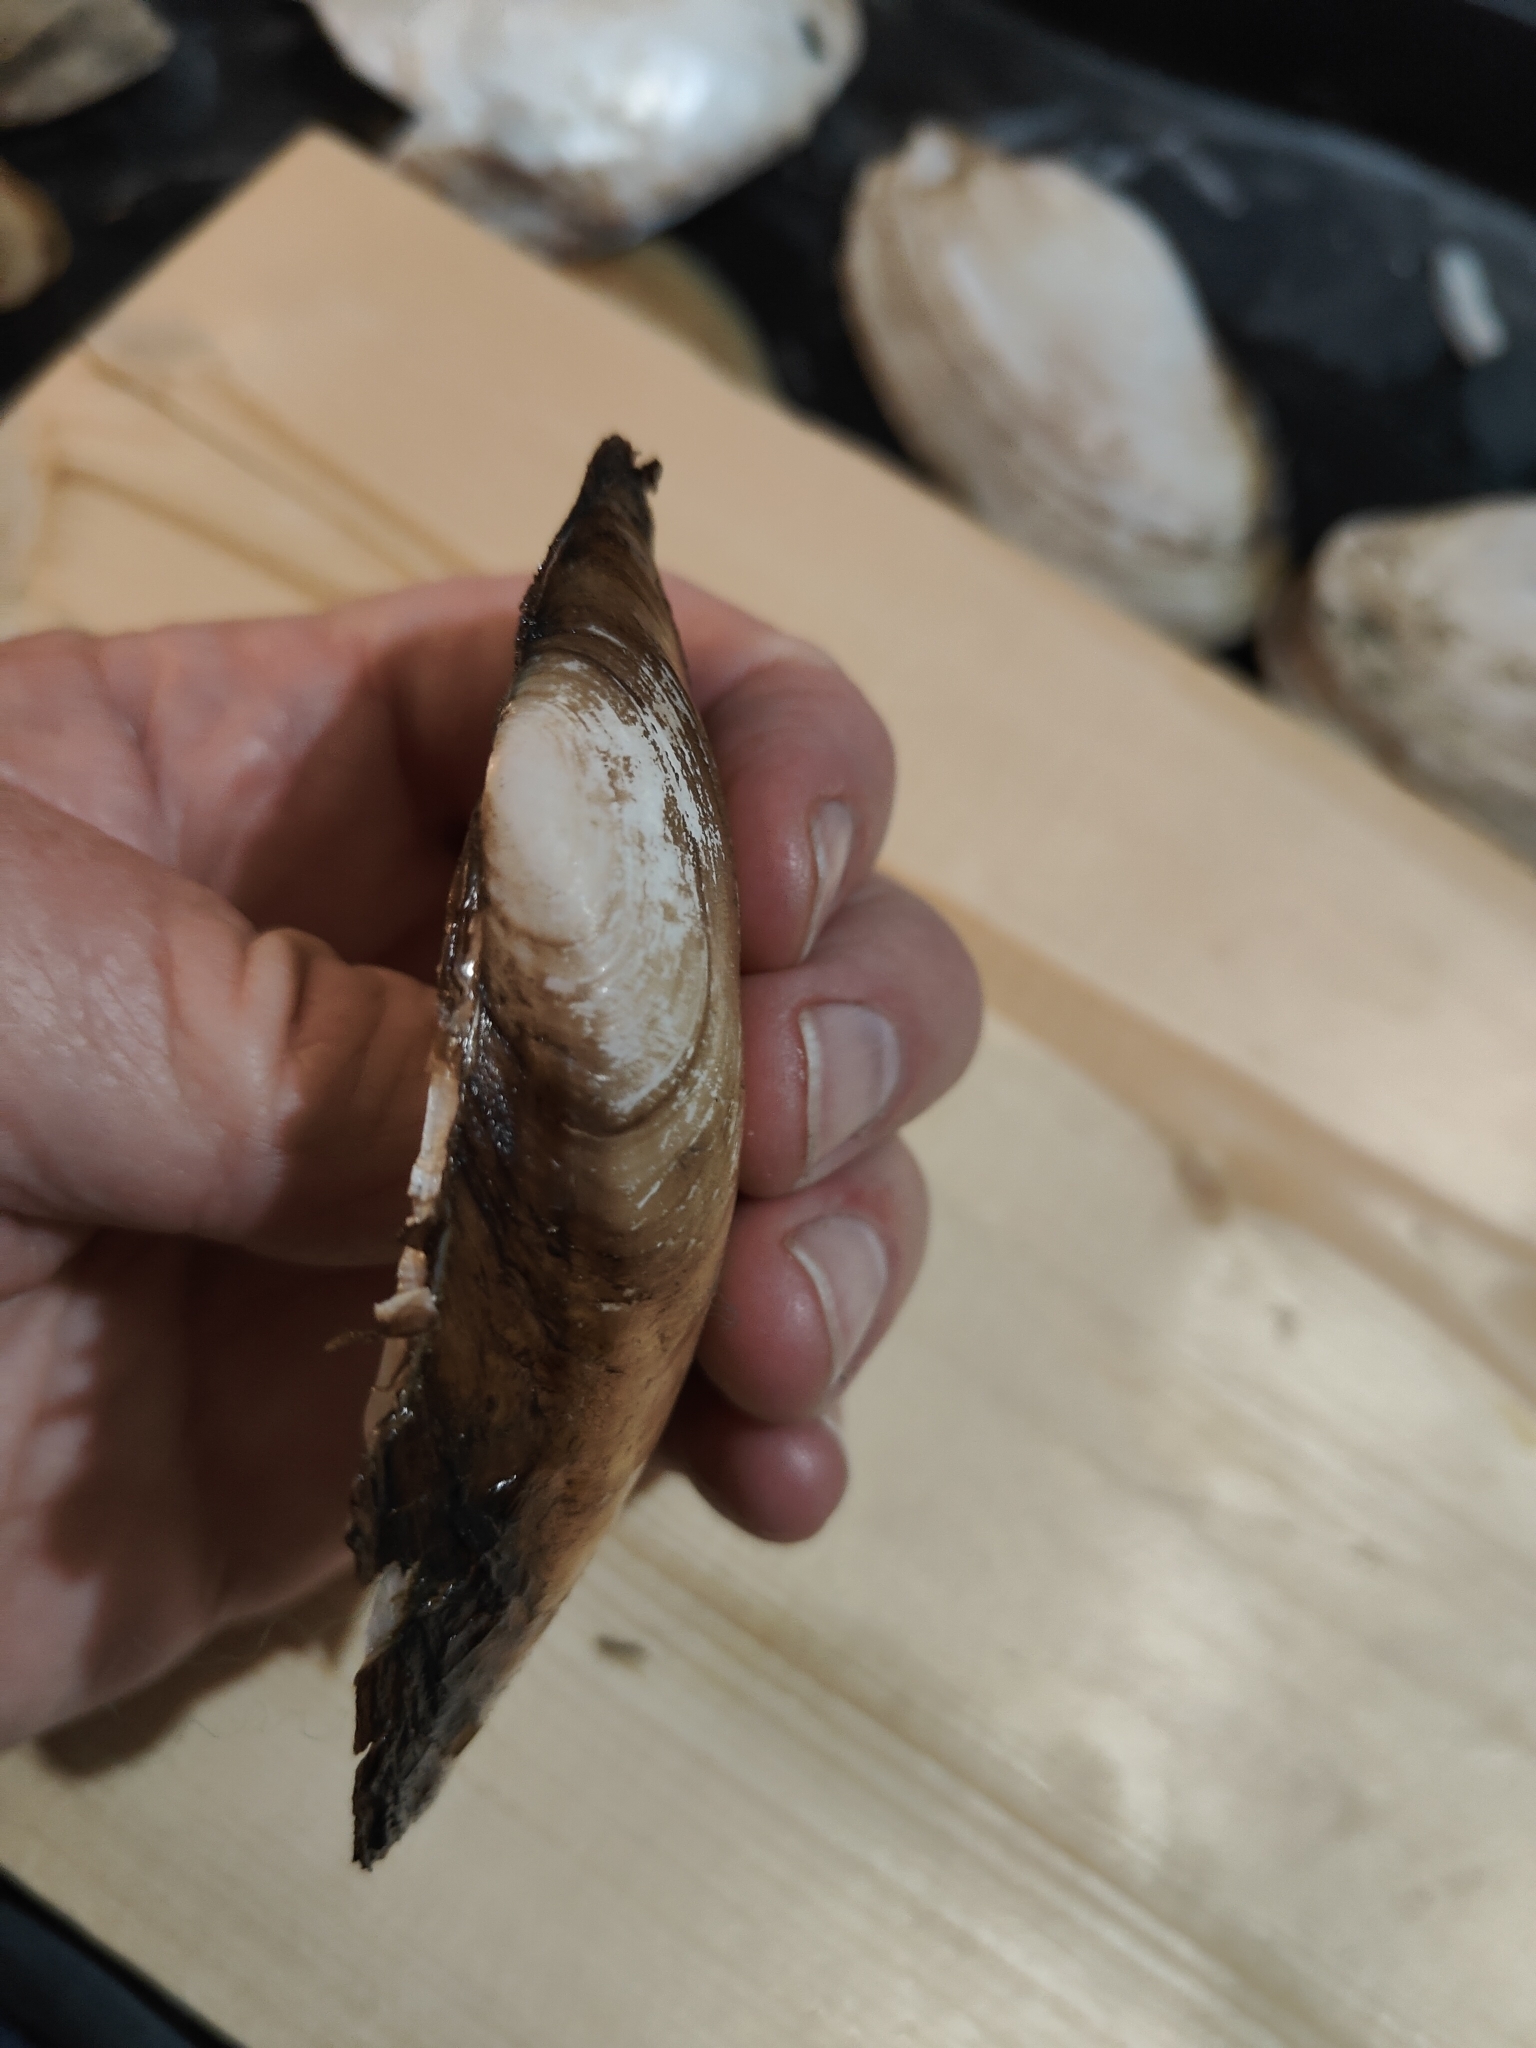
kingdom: Animalia
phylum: Mollusca
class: Bivalvia
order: Unionida
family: Unionidae
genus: Potamilus
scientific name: Potamilus fragilis
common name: Fragile papershell
